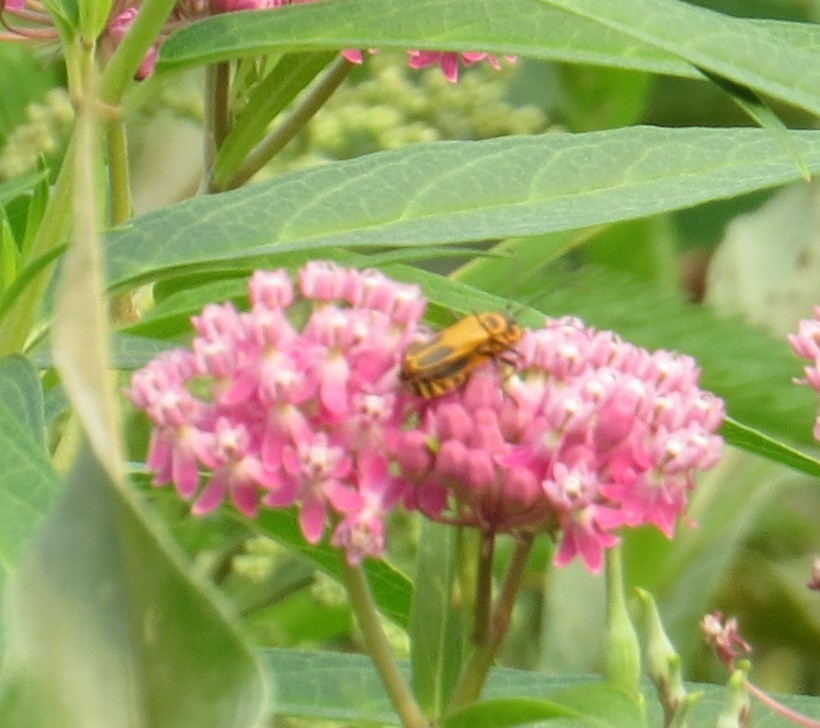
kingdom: Animalia
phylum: Arthropoda
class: Insecta
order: Coleoptera
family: Cantharidae
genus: Chauliognathus
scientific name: Chauliognathus pensylvanicus
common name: Goldenrod soldier beetle
